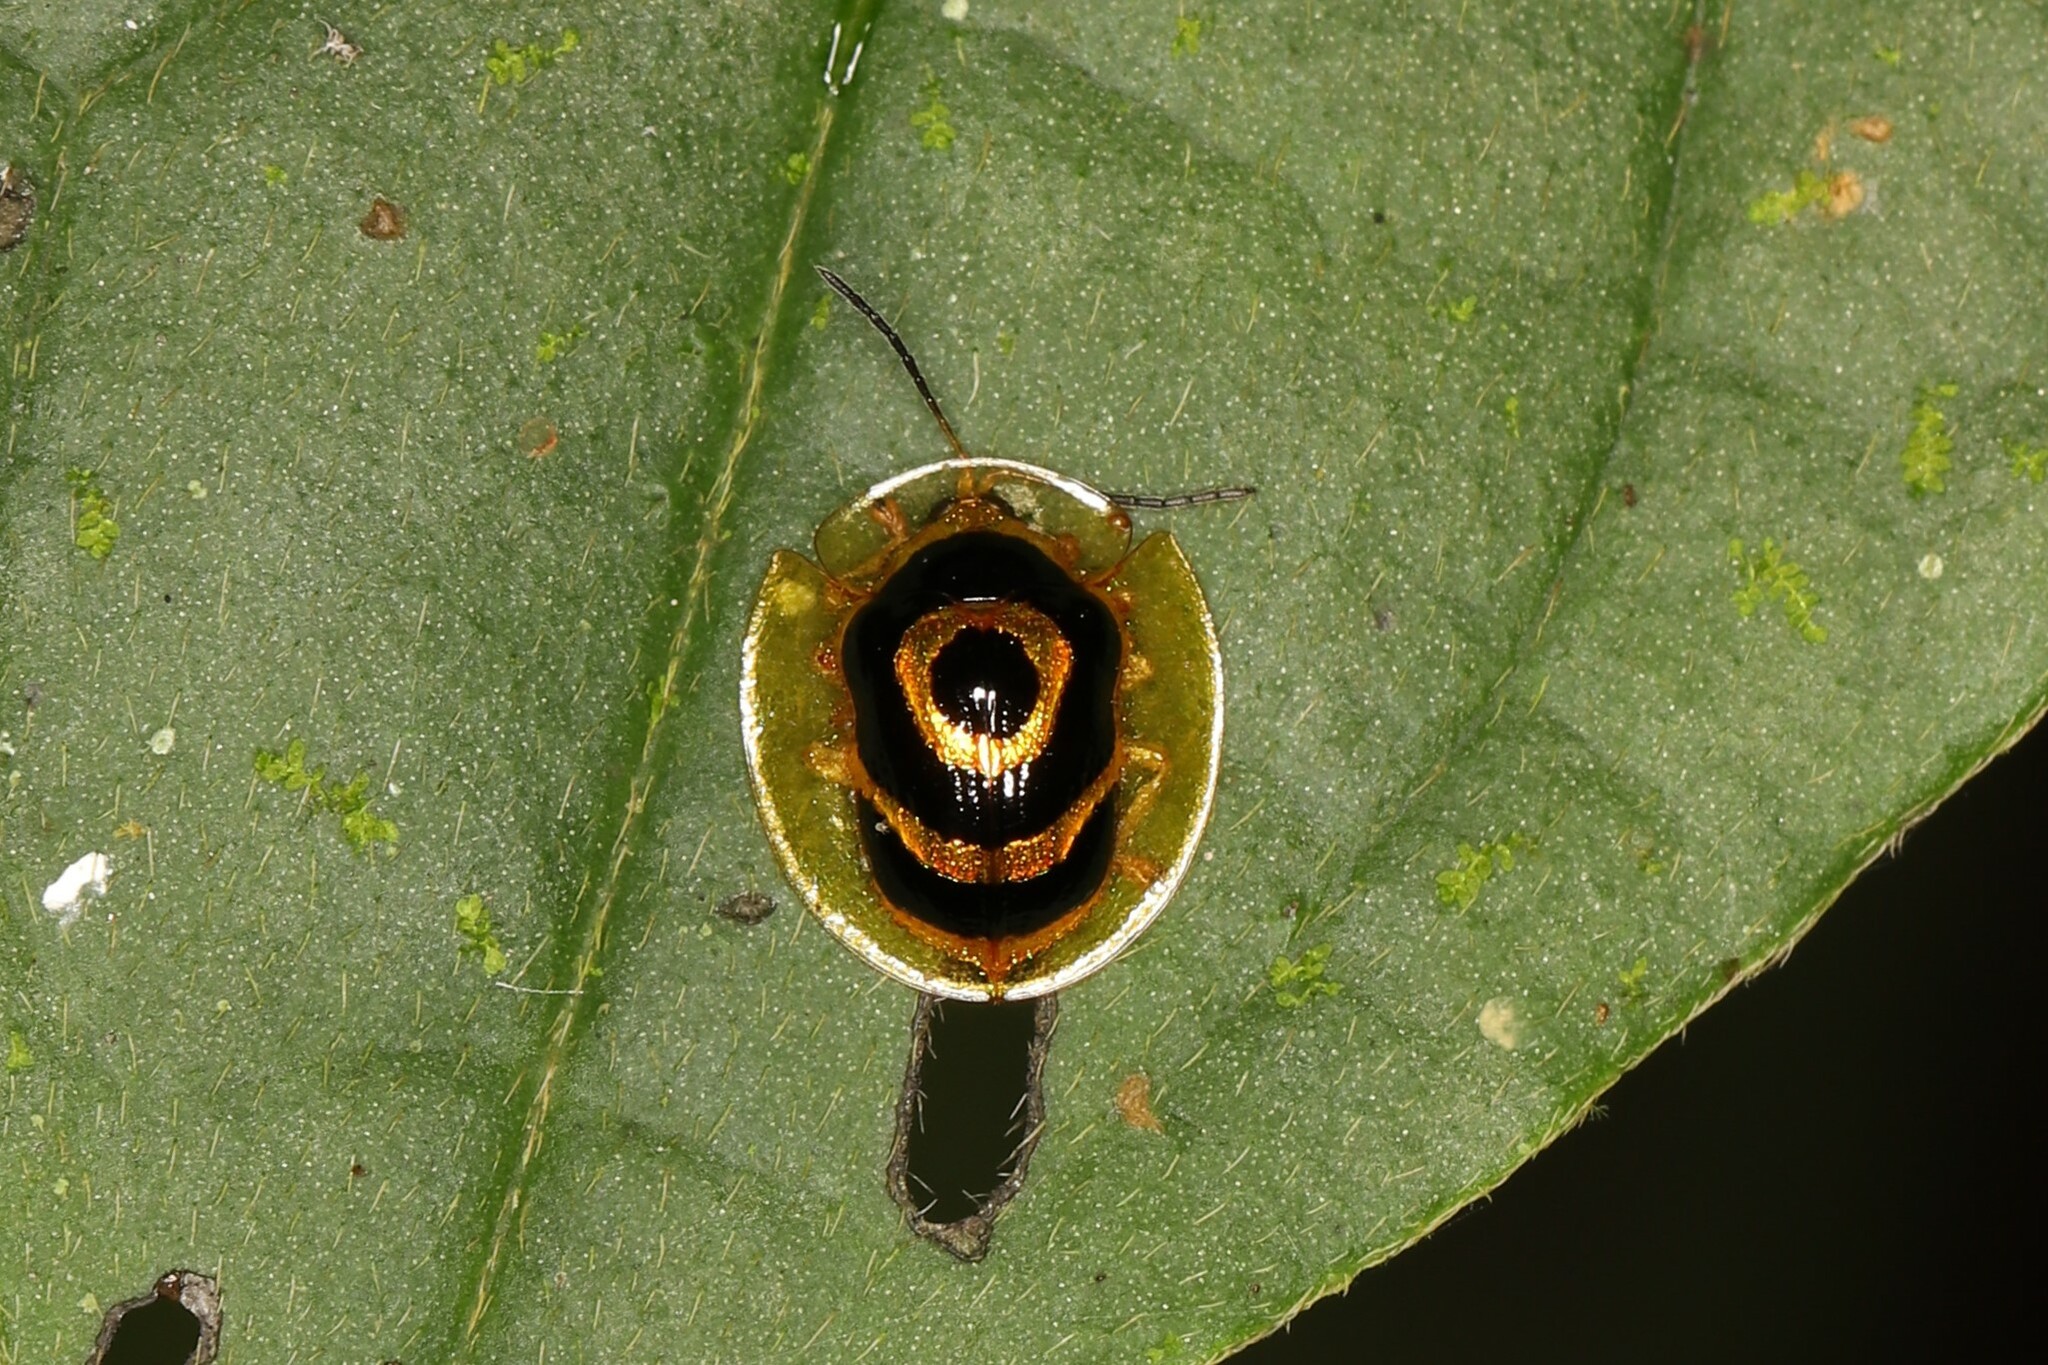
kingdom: Animalia
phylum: Arthropoda
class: Insecta
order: Coleoptera
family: Chrysomelidae
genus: Ischnocodia
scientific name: Ischnocodia annulus
